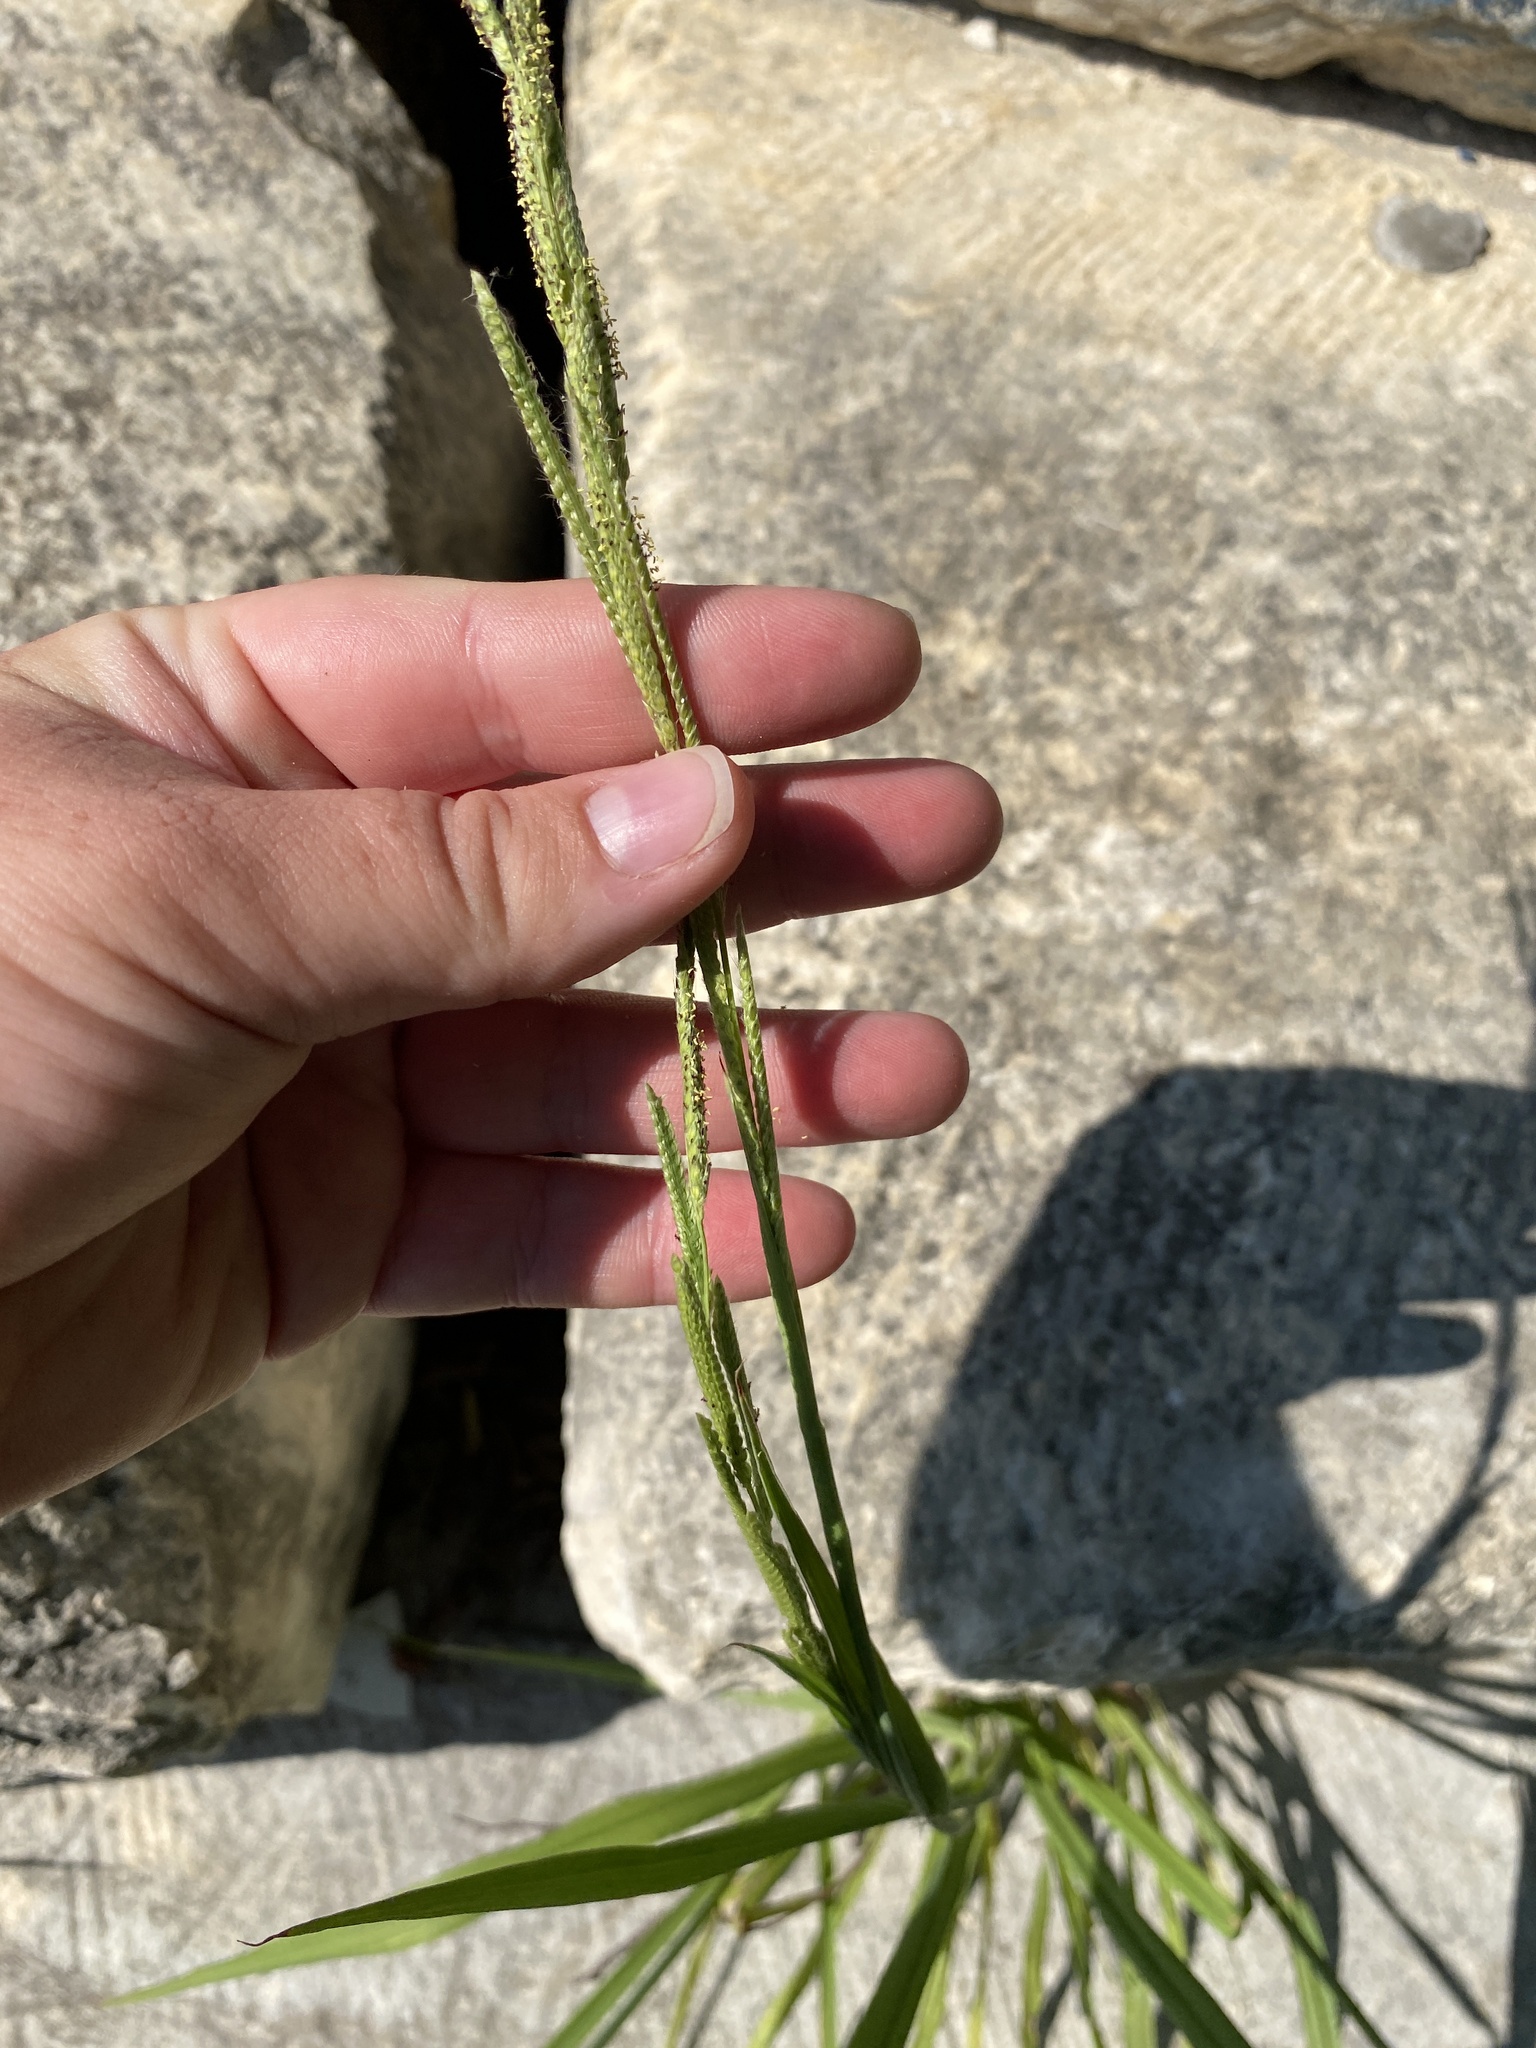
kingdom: Plantae
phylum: Tracheophyta
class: Liliopsida
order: Poales
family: Poaceae
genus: Paspalum
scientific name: Paspalum urvillei
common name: Vasey's grass
